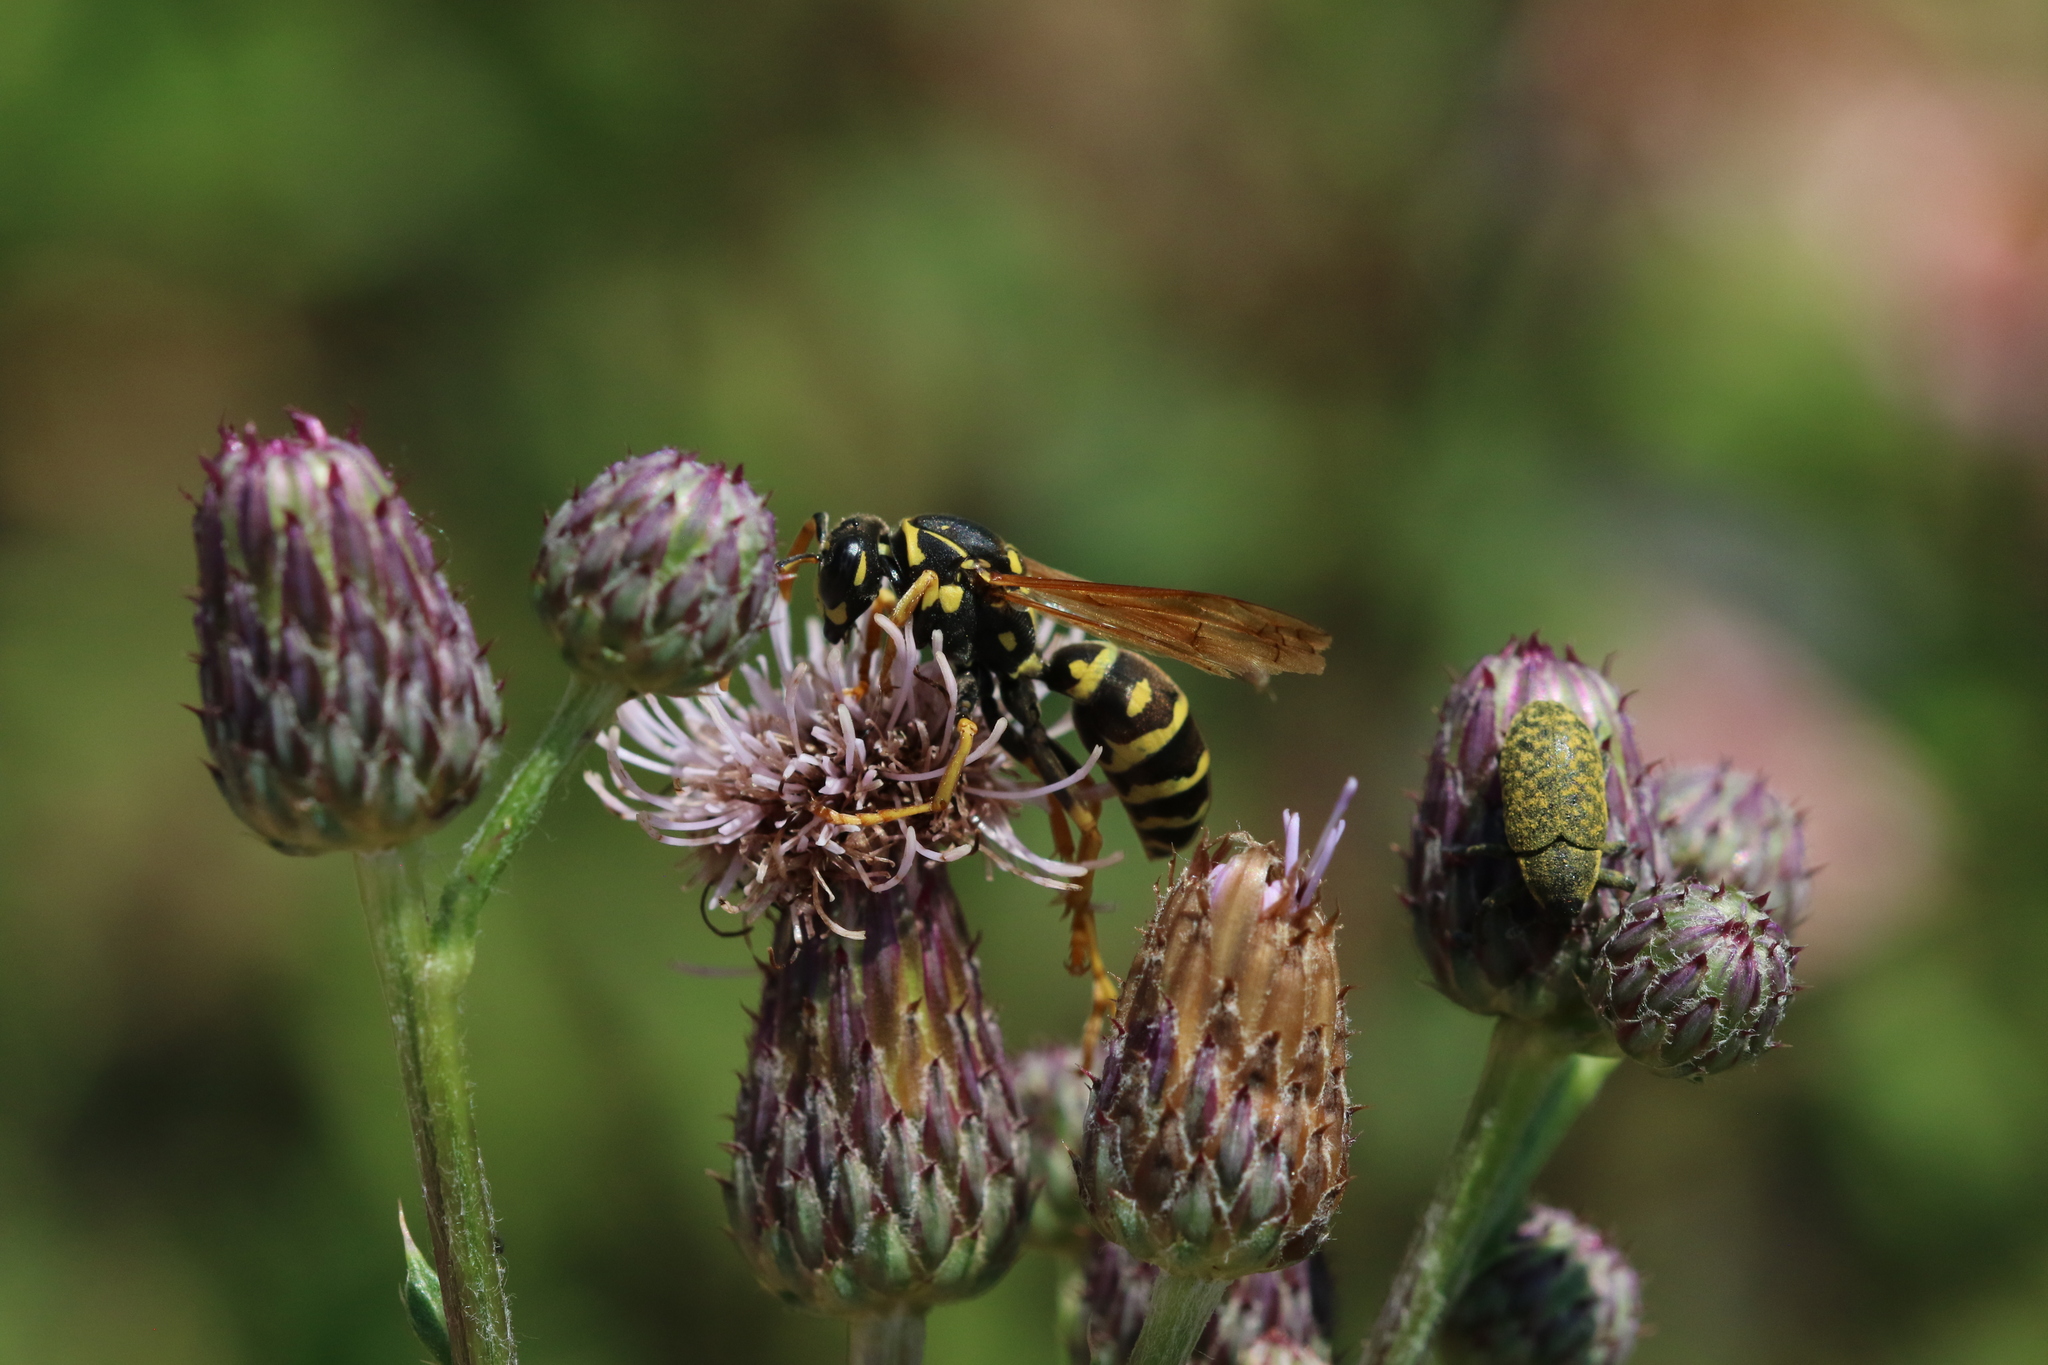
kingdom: Animalia
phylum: Arthropoda
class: Insecta
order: Hymenoptera
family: Eumenidae
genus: Polistes
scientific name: Polistes dominula
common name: Paper wasp
